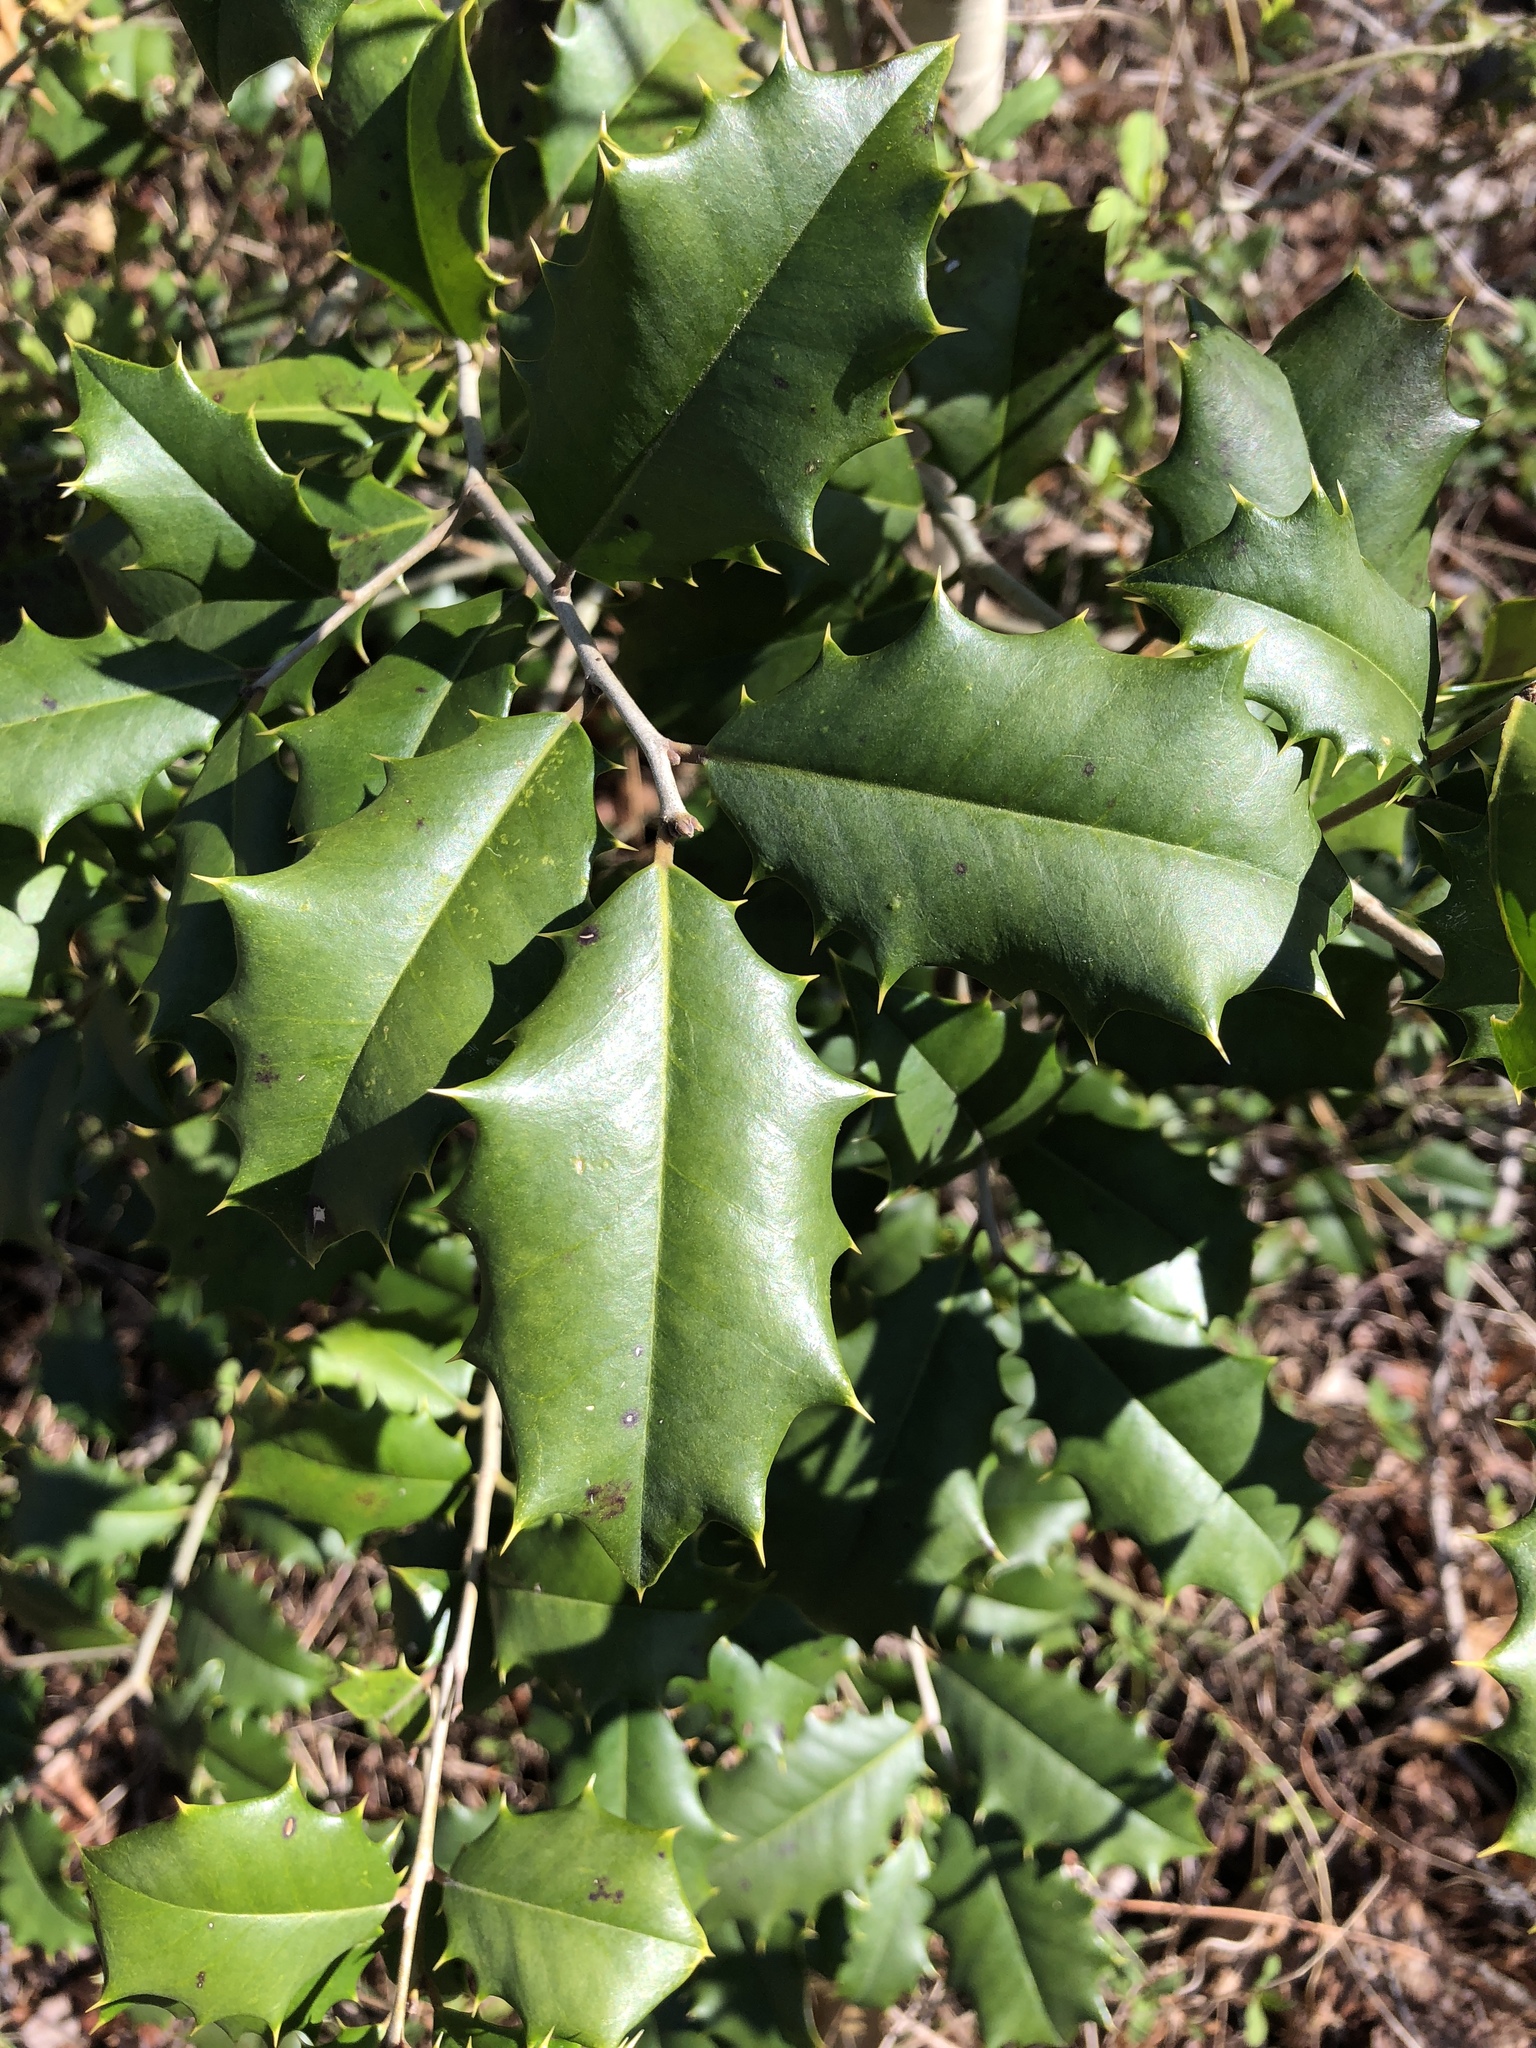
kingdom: Plantae
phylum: Tracheophyta
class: Magnoliopsida
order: Aquifoliales
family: Aquifoliaceae
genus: Ilex
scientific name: Ilex opaca
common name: American holly
